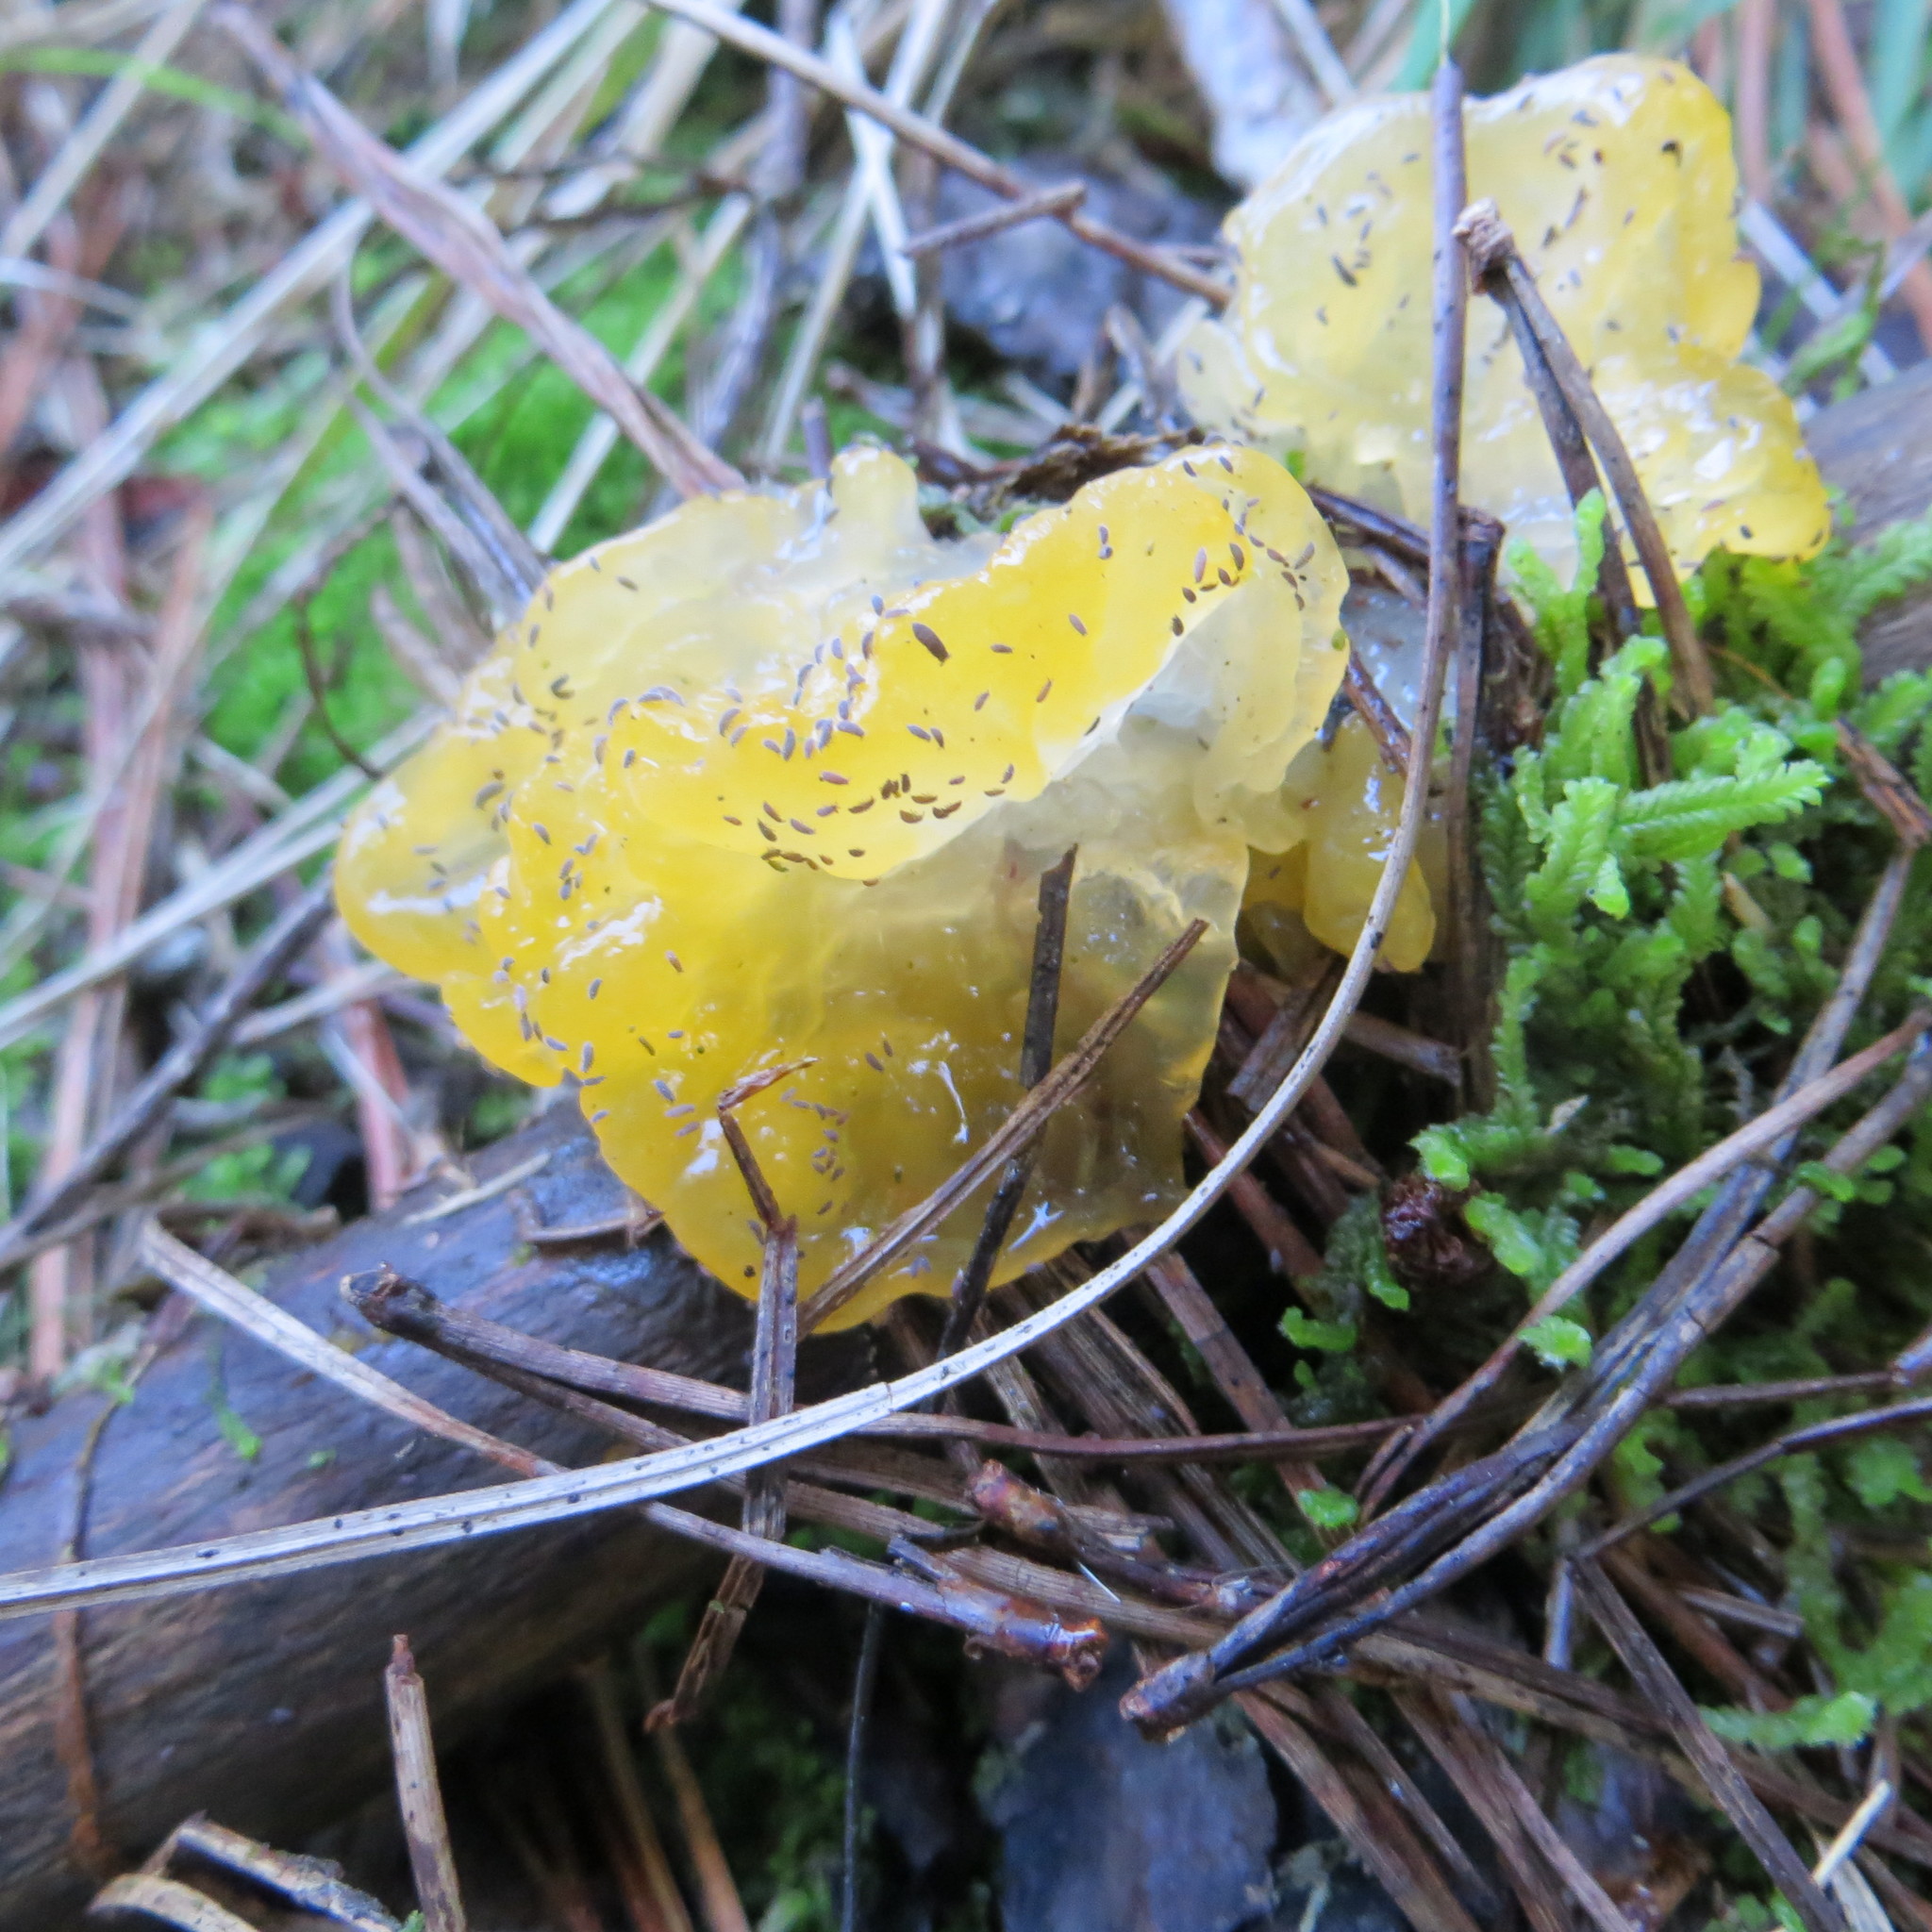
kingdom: Fungi
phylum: Basidiomycota
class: Tremellomycetes
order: Tremellales
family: Tremellaceae
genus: Tremella
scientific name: Tremella mesenterica
